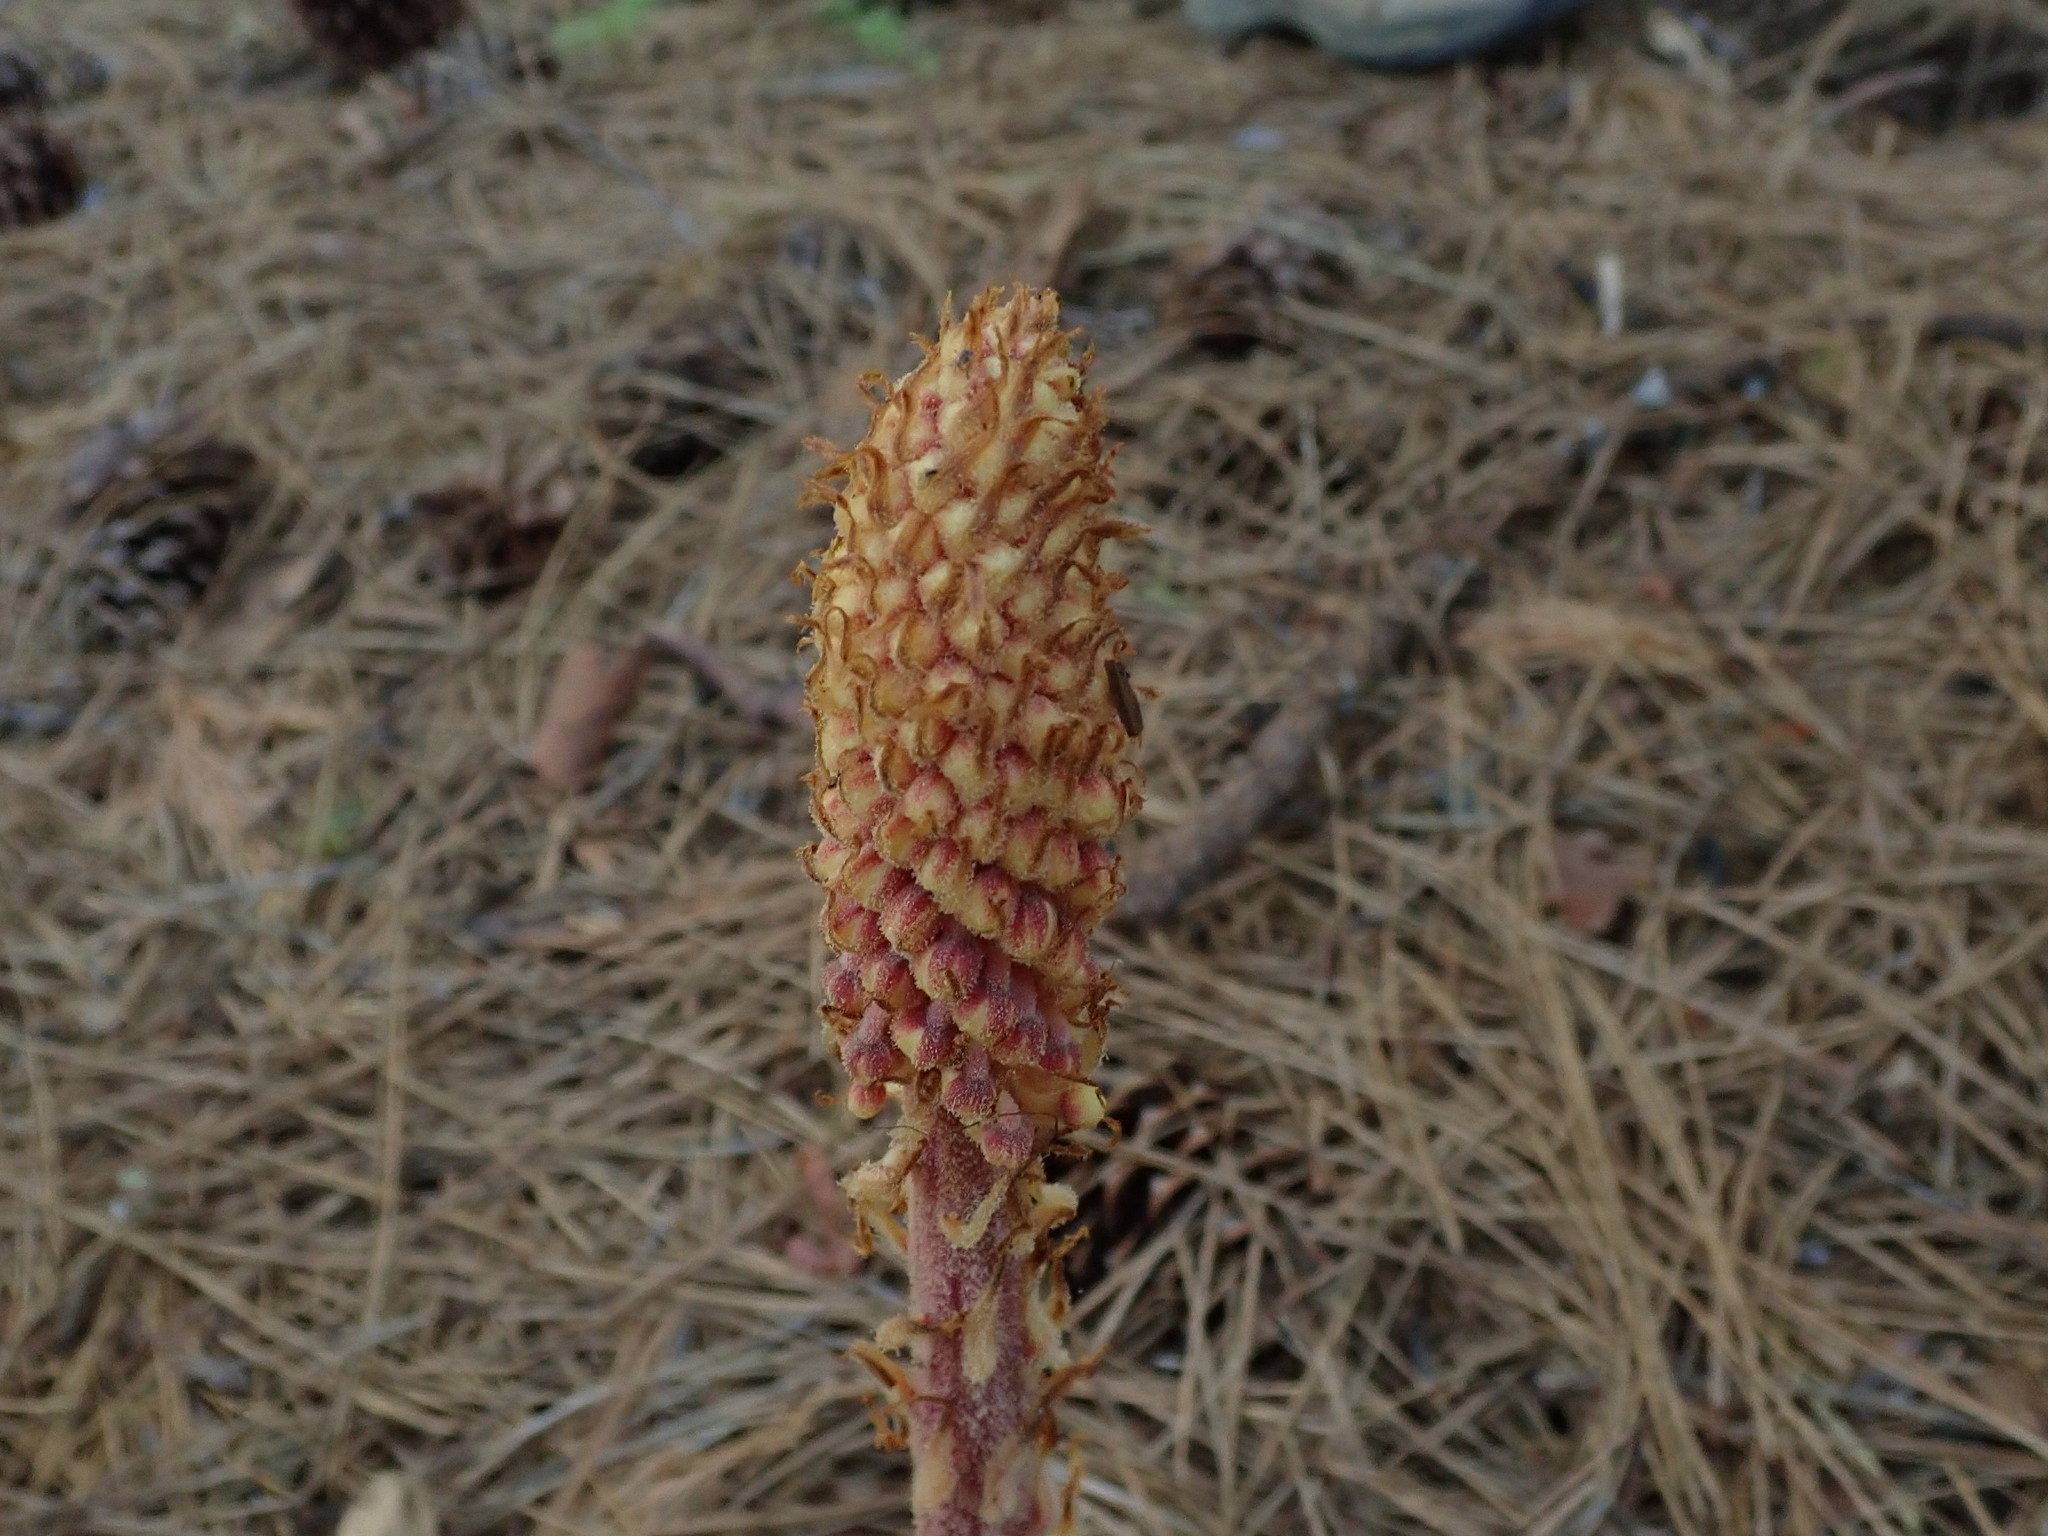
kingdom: Plantae
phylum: Tracheophyta
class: Magnoliopsida
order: Ericales
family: Ericaceae
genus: Pterospora
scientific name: Pterospora andromedea
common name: Giant bird's-nest
